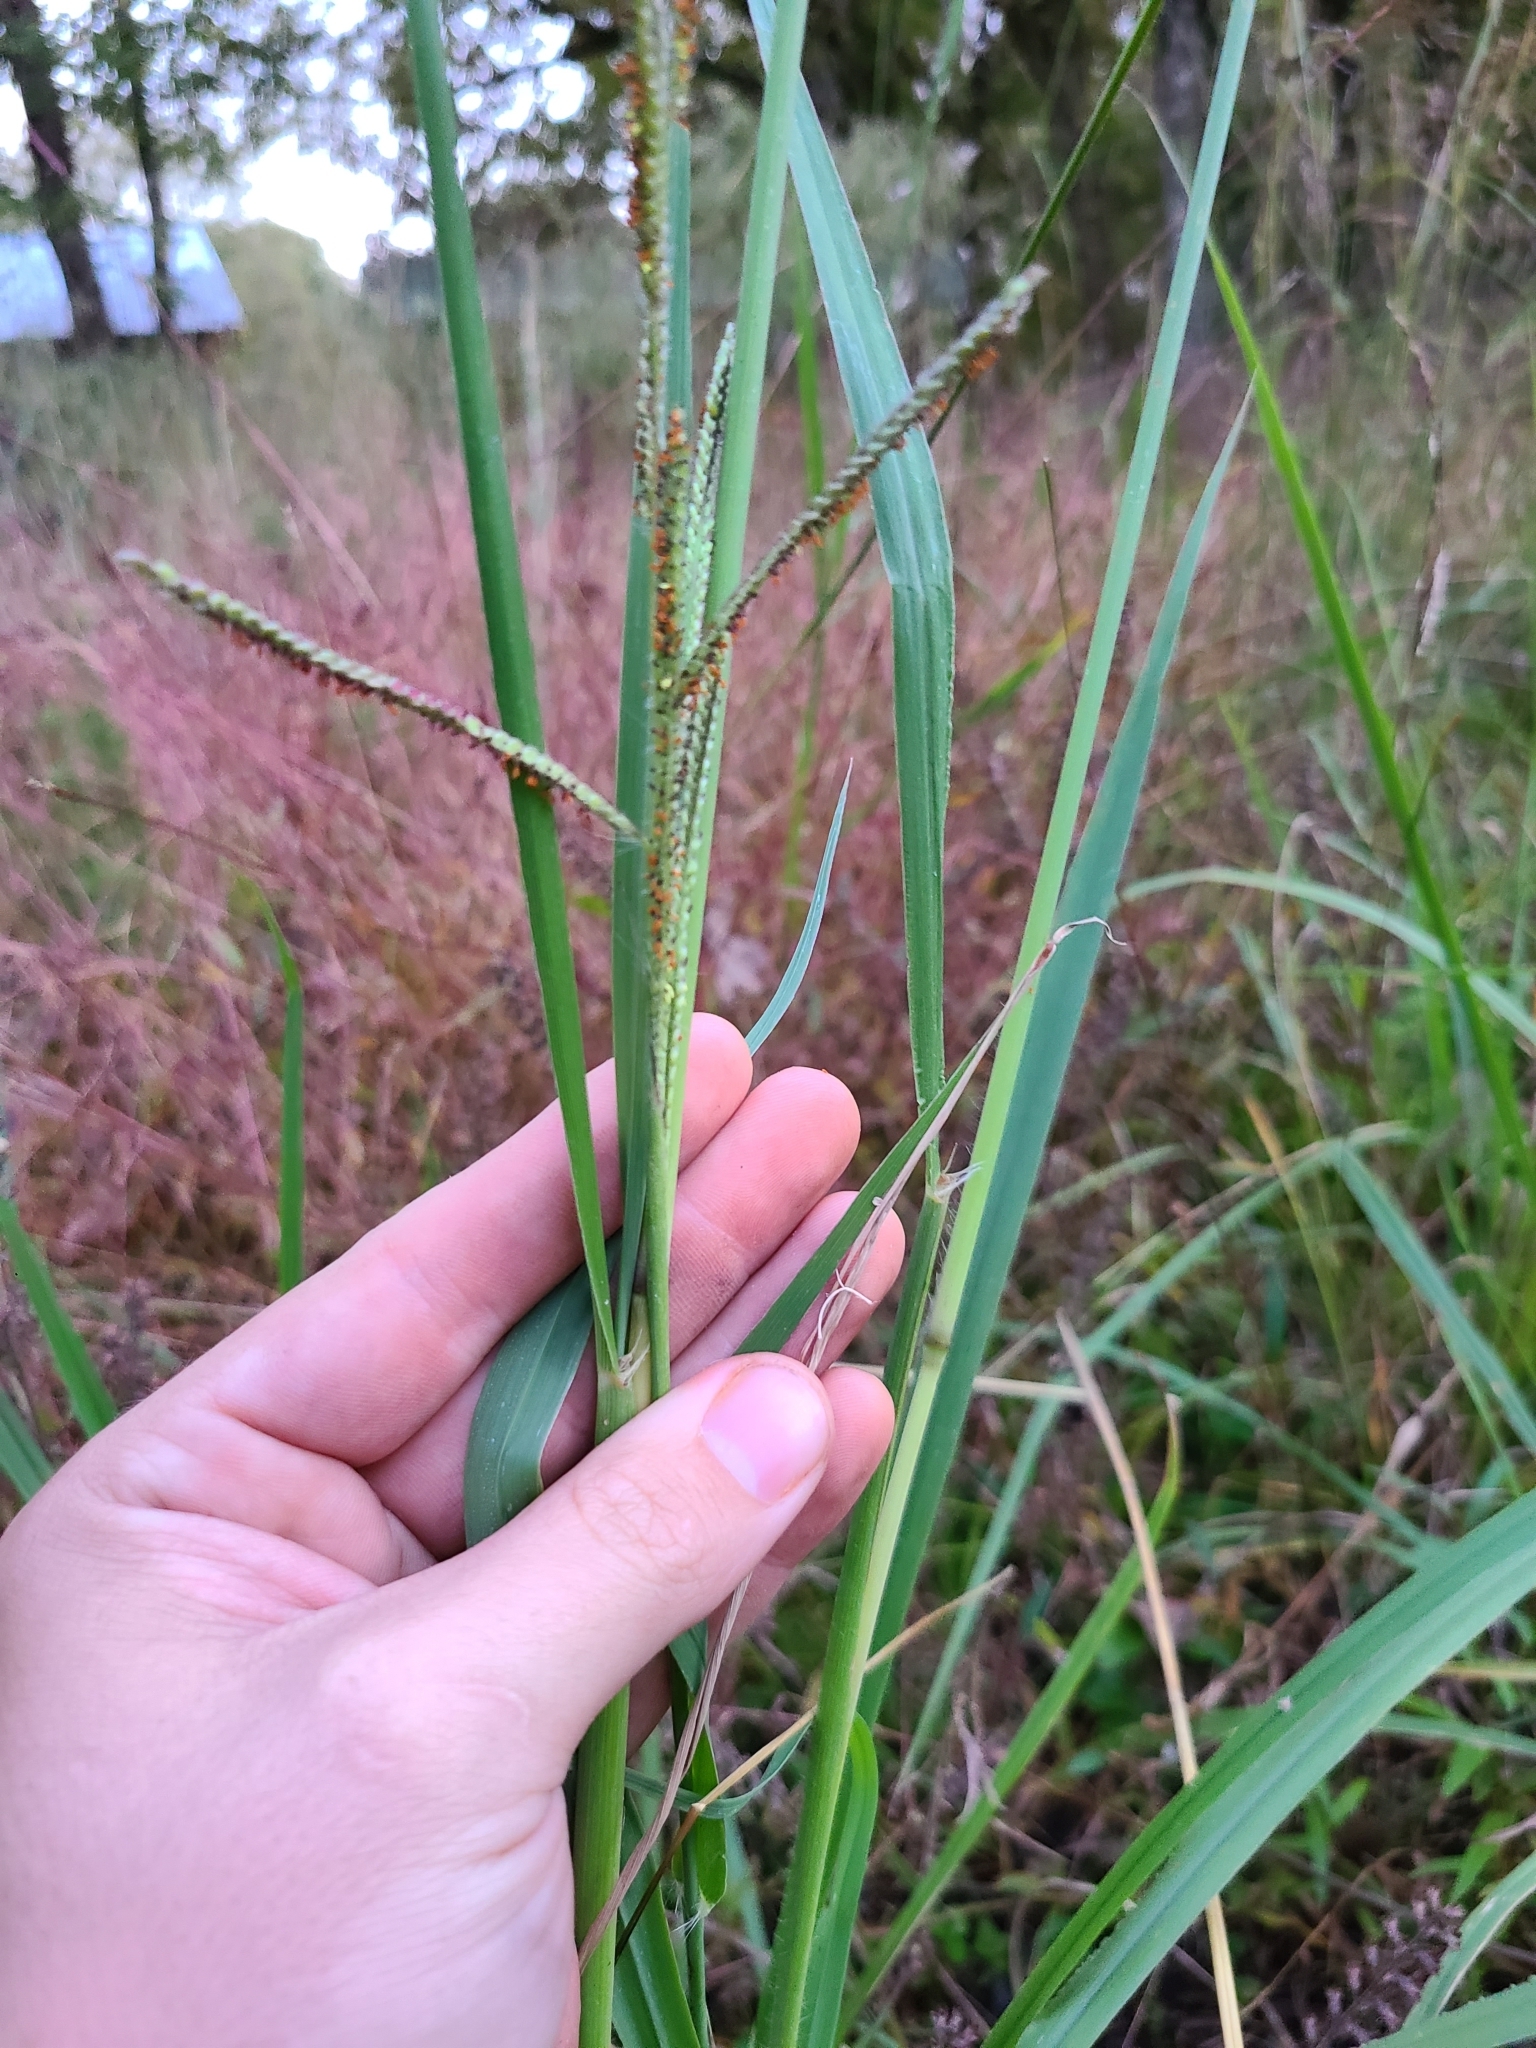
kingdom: Plantae
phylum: Tracheophyta
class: Liliopsida
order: Poales
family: Poaceae
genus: Paspalum
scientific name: Paspalum urvillei
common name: Vasey's grass
